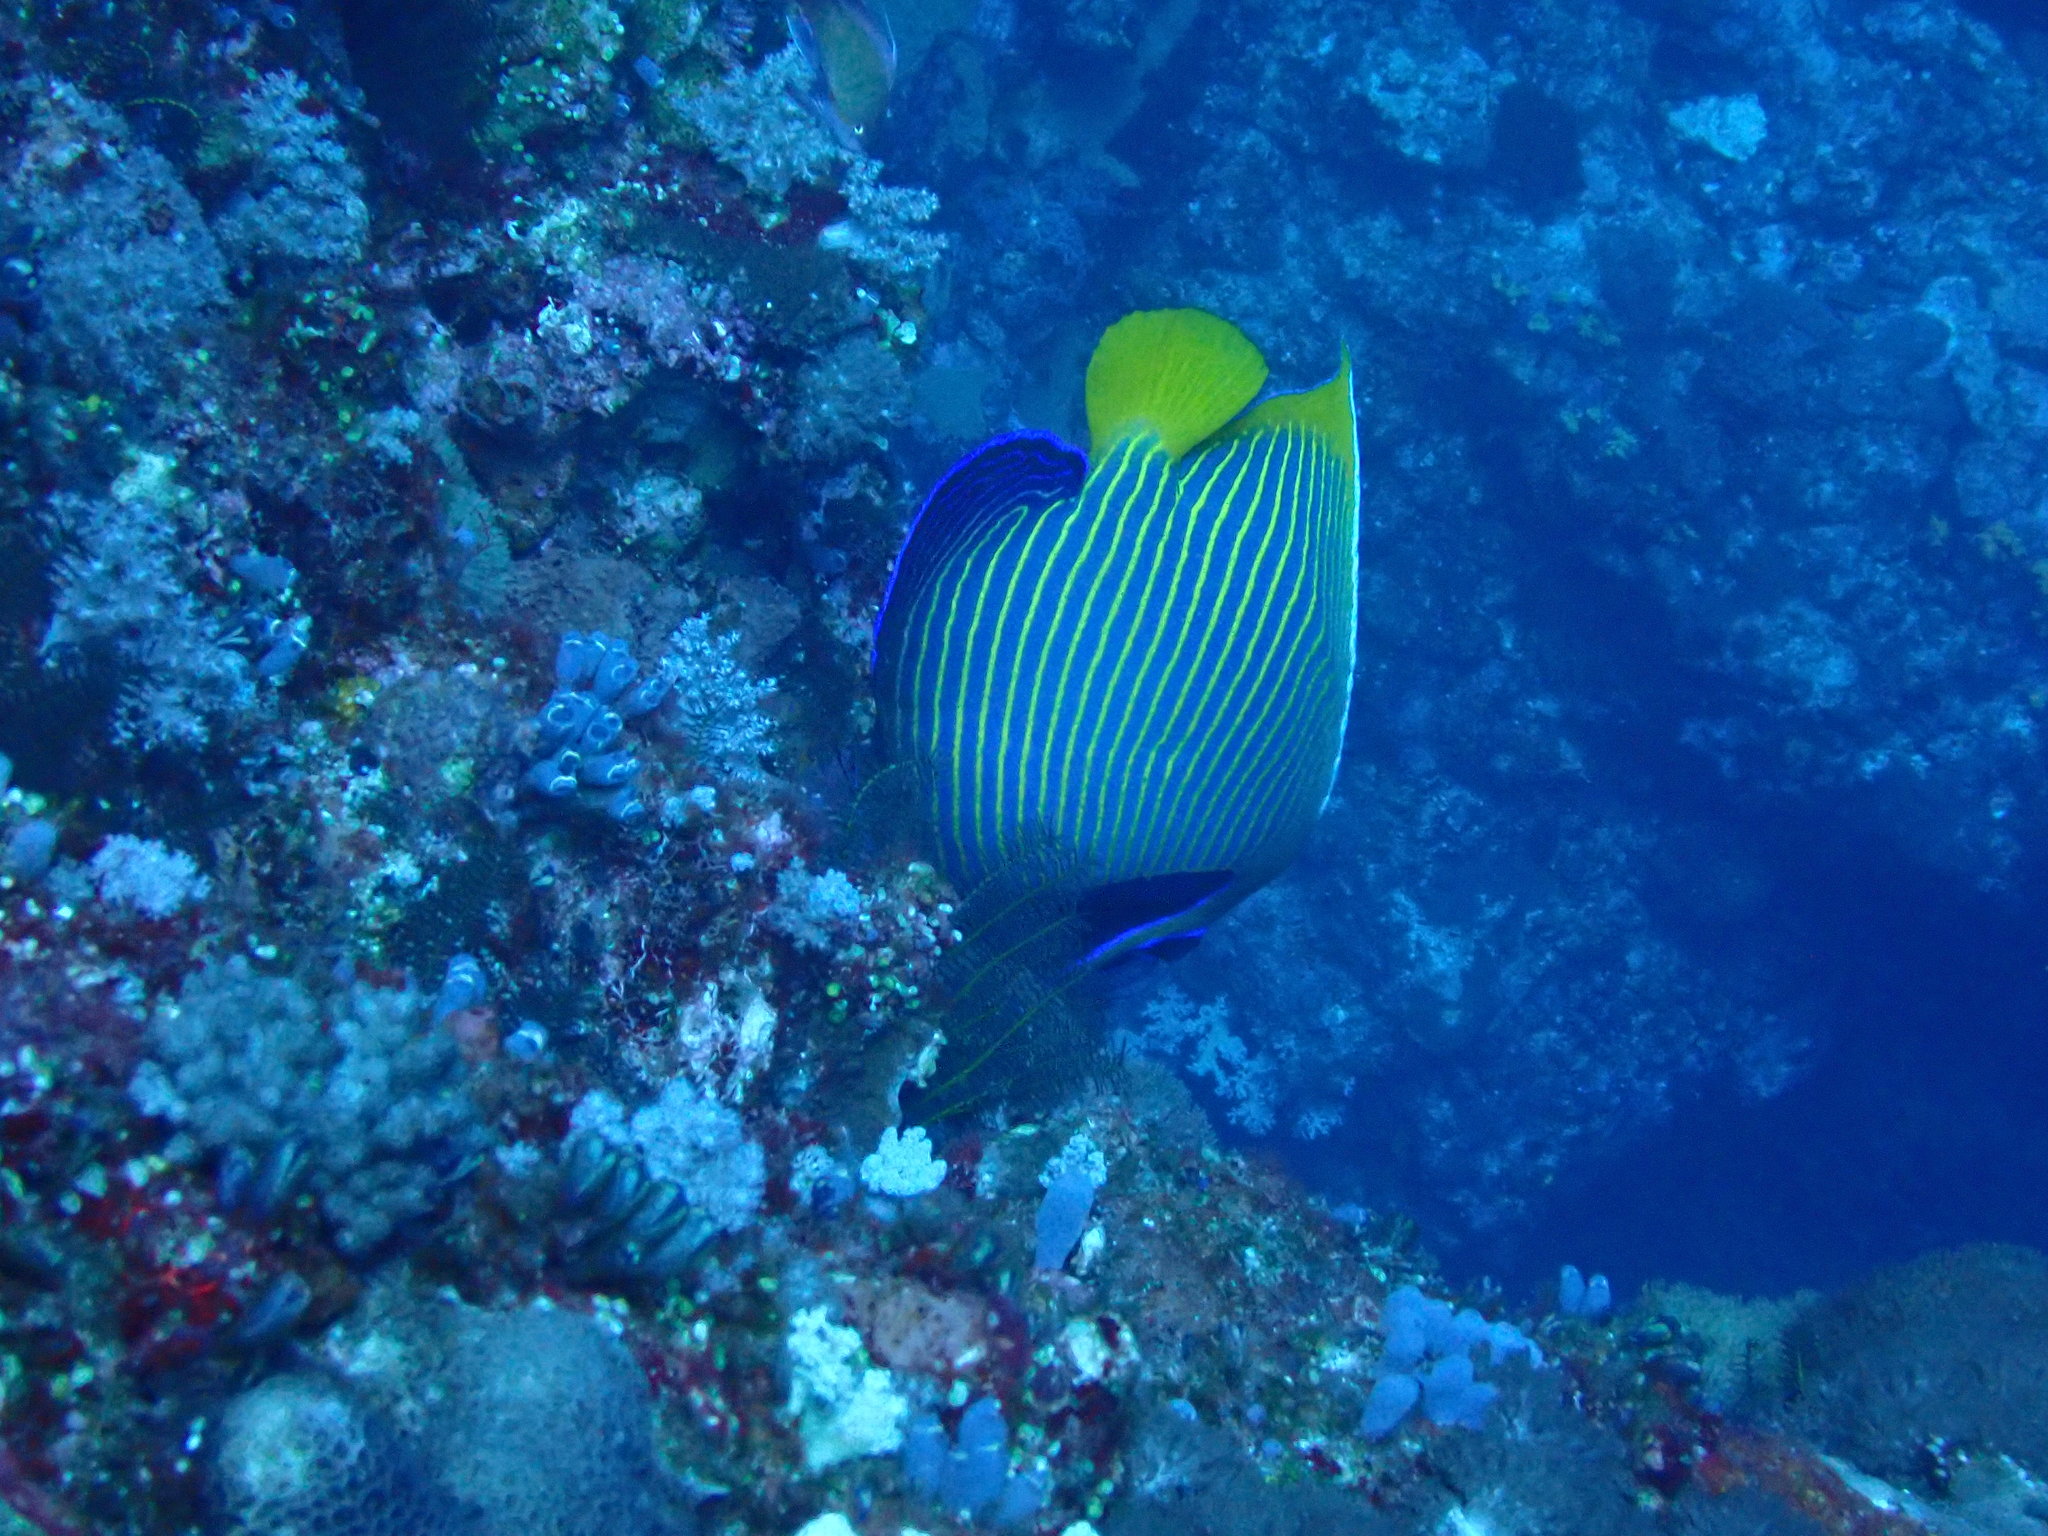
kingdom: Animalia
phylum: Chordata
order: Perciformes
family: Pomacanthidae
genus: Pomacanthus
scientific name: Pomacanthus imperator
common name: Emperor angelfish
